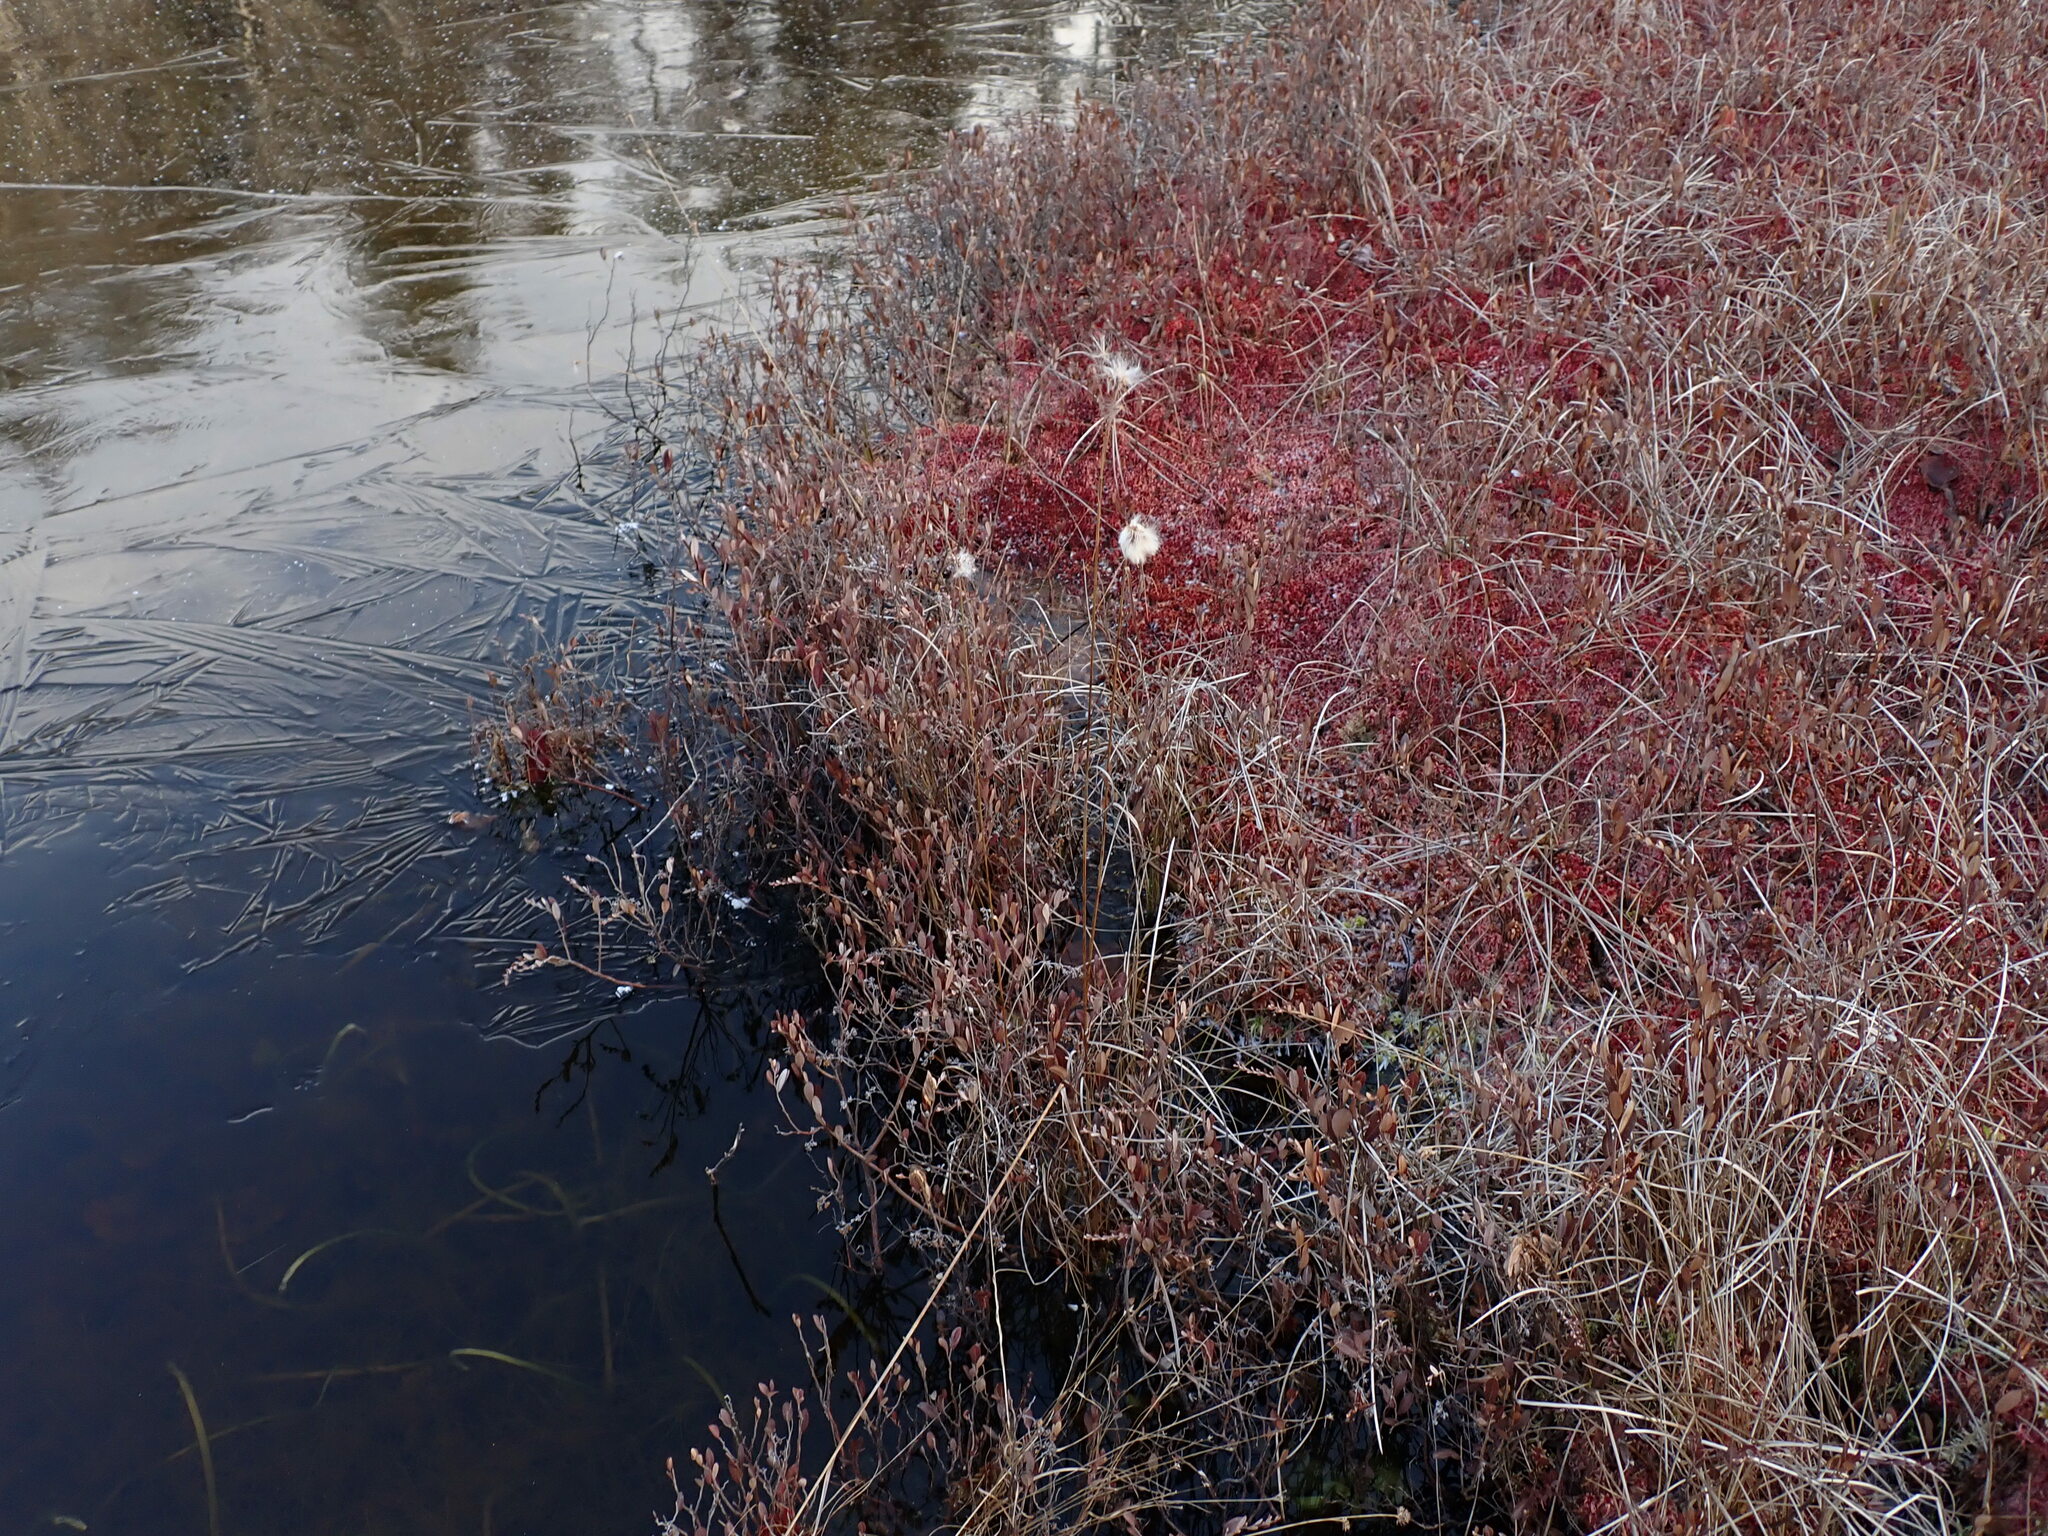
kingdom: Plantae
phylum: Tracheophyta
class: Liliopsida
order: Poales
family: Cyperaceae
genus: Eriophorum
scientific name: Eriophorum virginicum
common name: Tawny cottongrass
